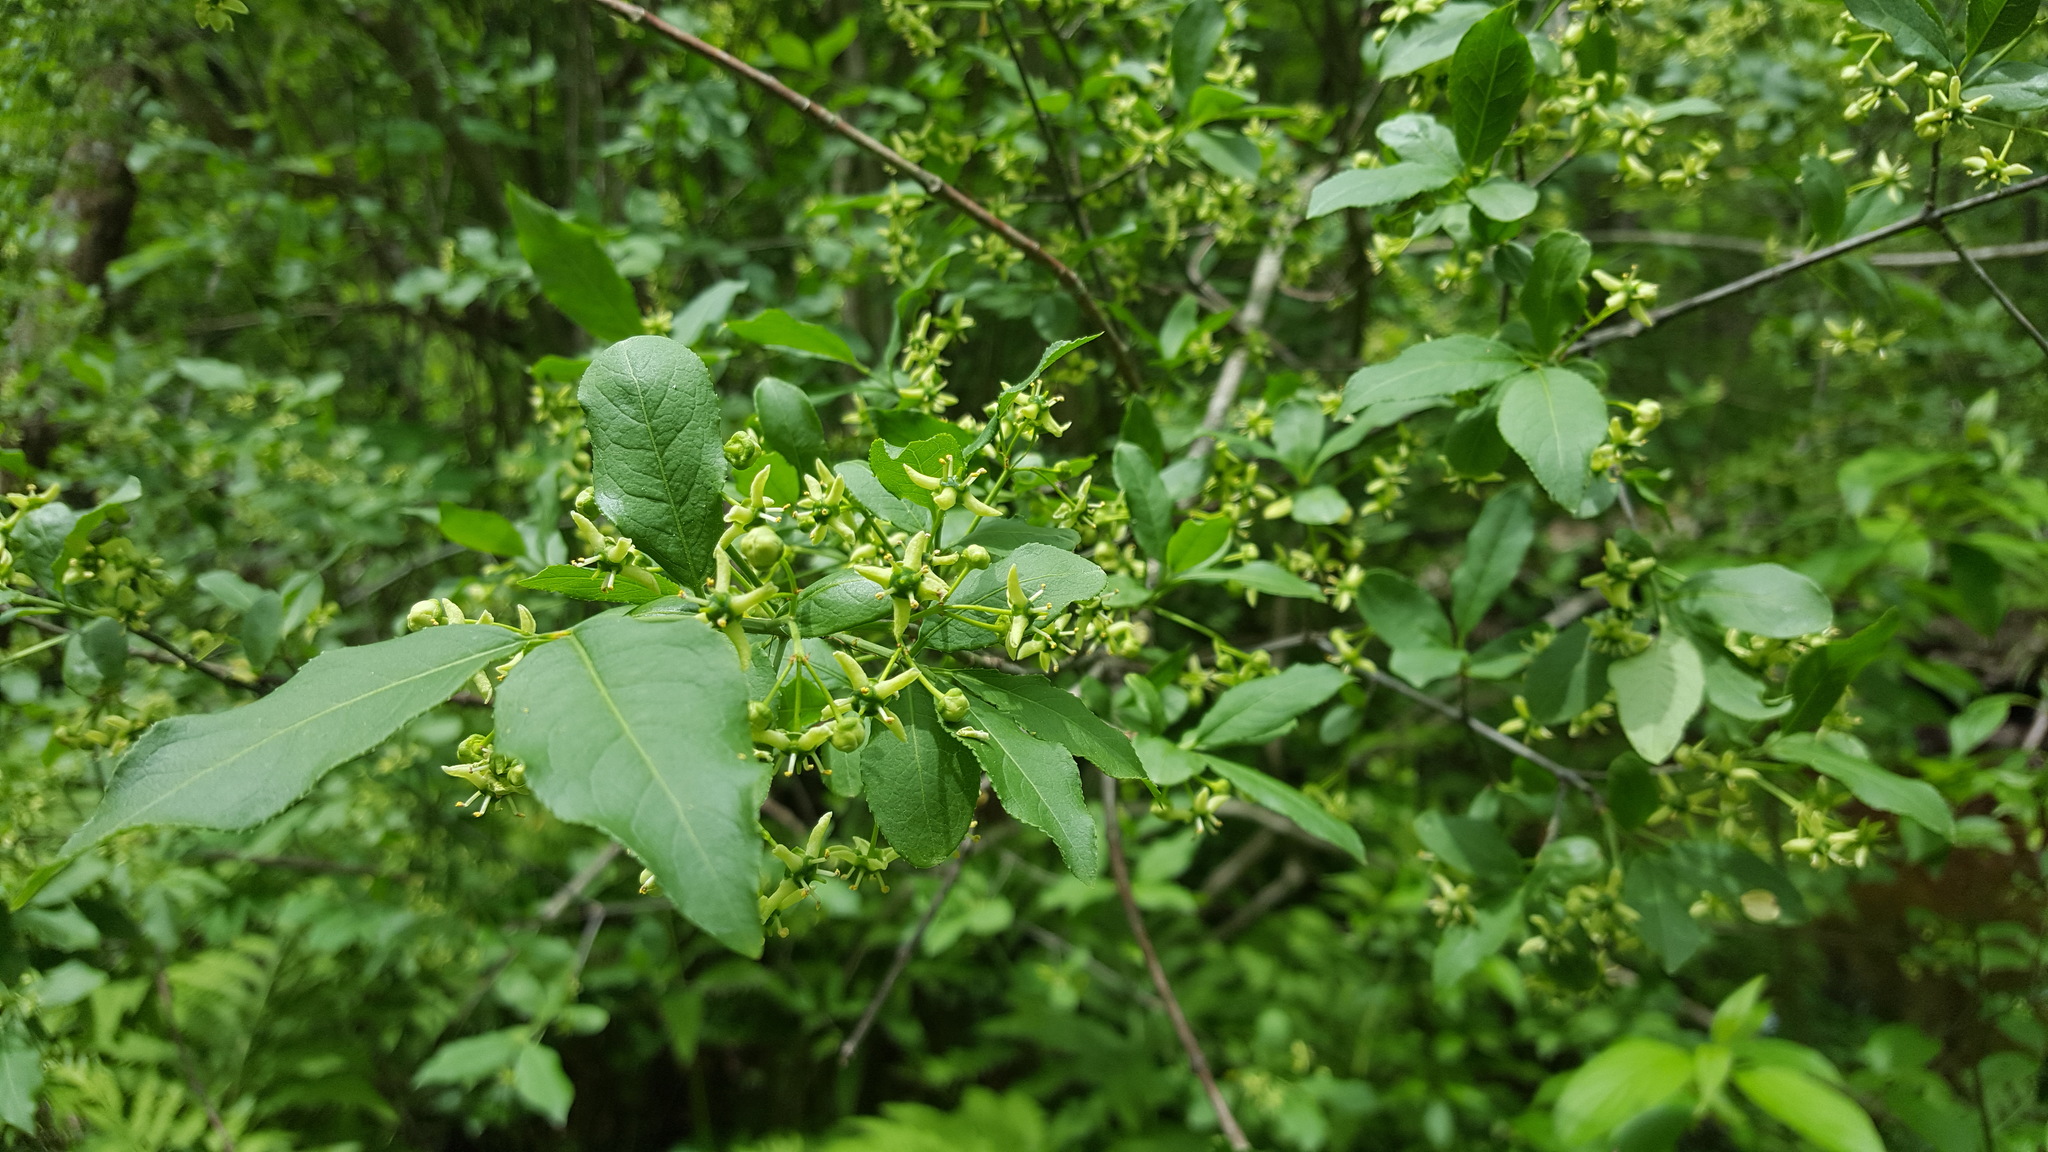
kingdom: Plantae
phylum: Tracheophyta
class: Magnoliopsida
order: Celastrales
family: Celastraceae
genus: Euonymus
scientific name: Euonymus europaeus
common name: Spindle
